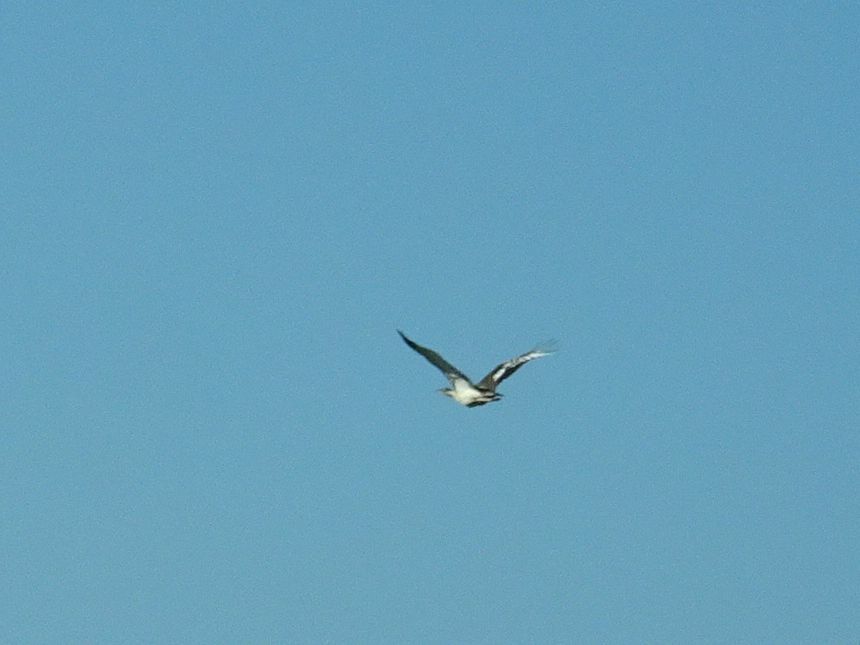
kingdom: Animalia
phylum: Chordata
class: Aves
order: Otidiformes
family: Otididae
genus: Neotis
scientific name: Neotis denhami
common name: Denham's bustard
